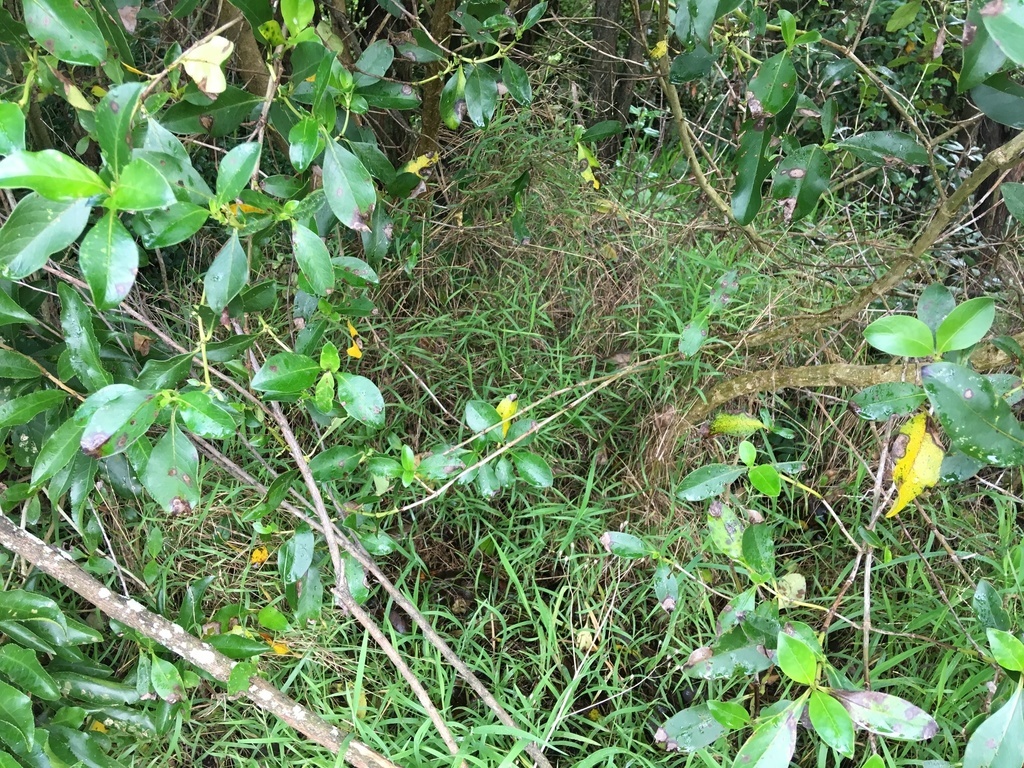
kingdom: Plantae
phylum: Tracheophyta
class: Liliopsida
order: Poales
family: Poaceae
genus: Ehrharta
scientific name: Ehrharta erecta
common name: Panic veldtgrass
